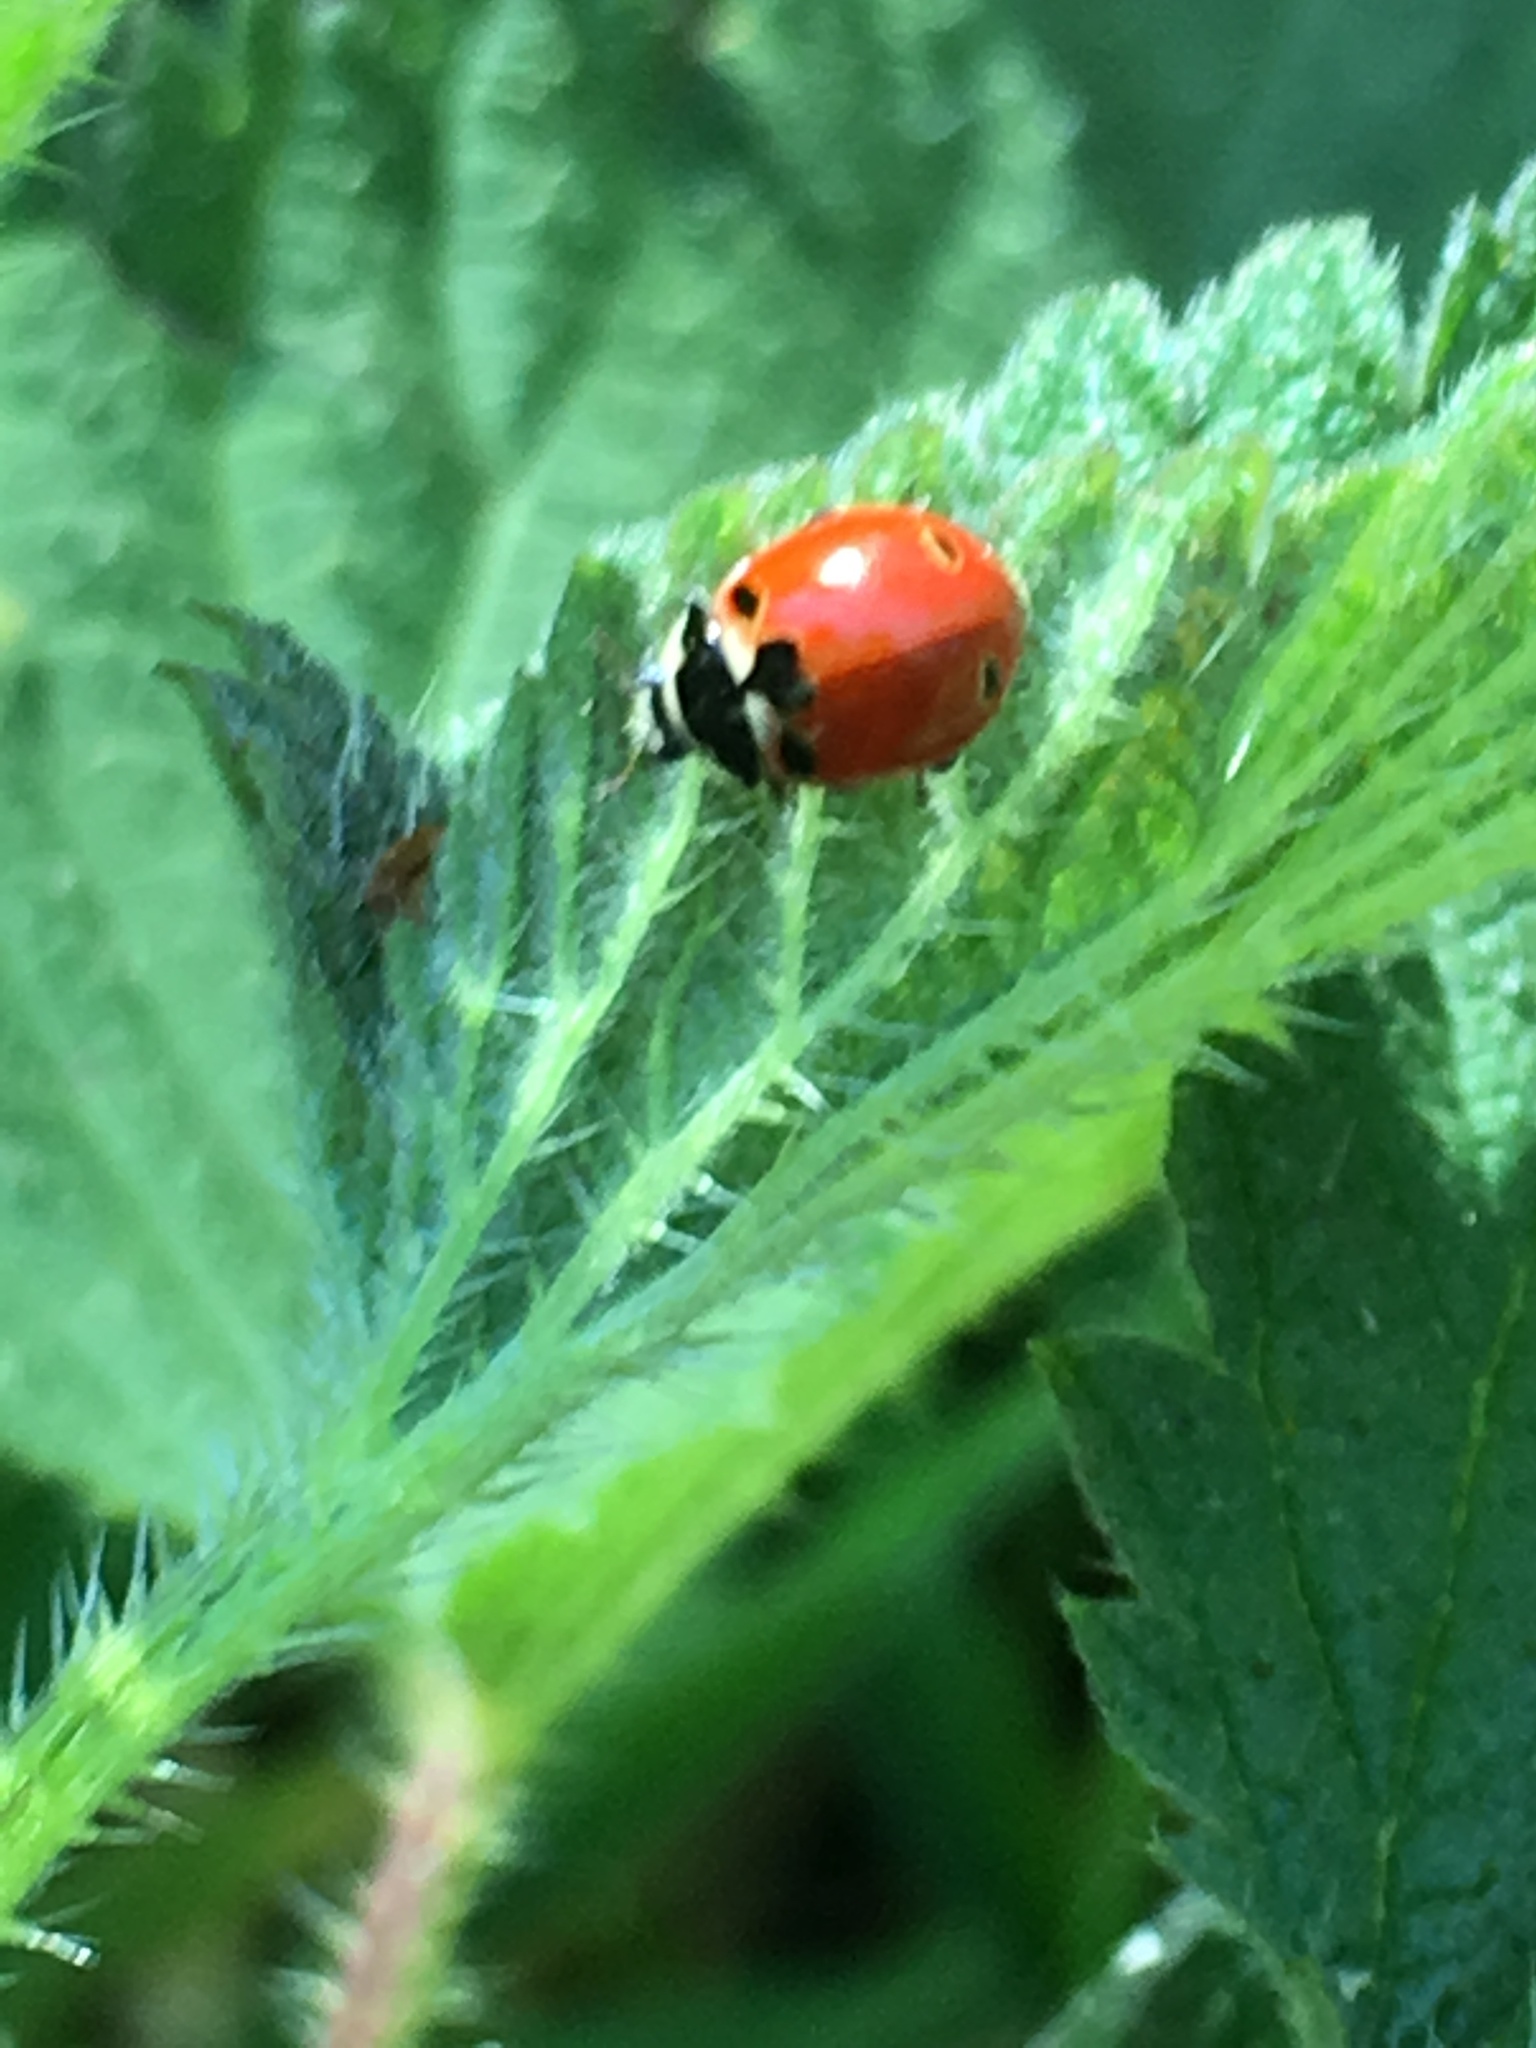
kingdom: Animalia
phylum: Arthropoda
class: Insecta
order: Coleoptera
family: Coccinellidae
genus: Coccinella
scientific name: Coccinella trifasciata
